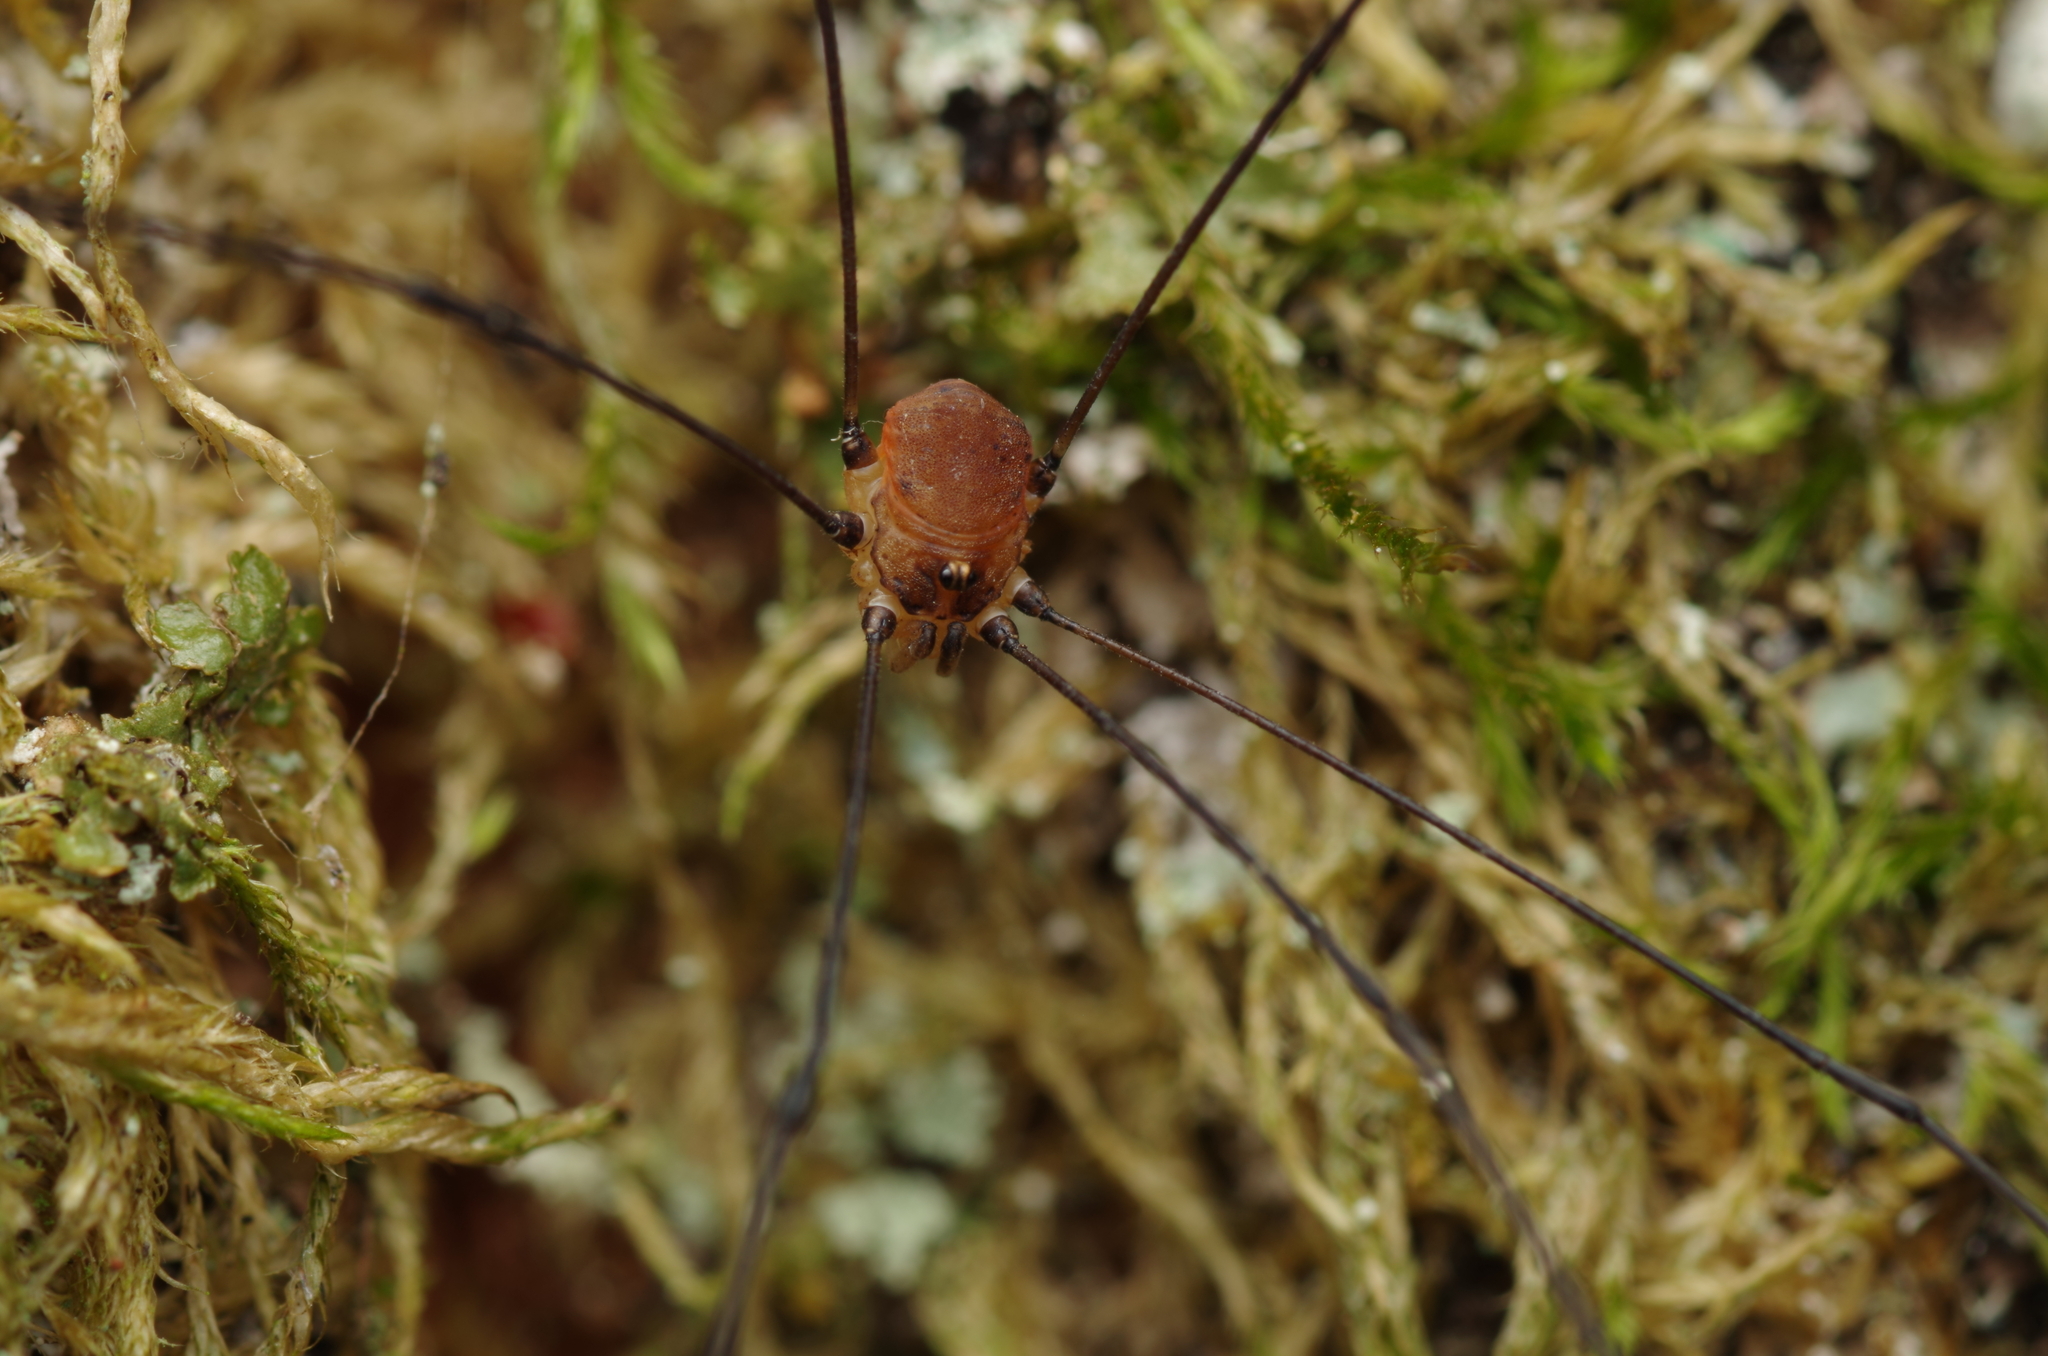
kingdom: Animalia
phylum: Arthropoda
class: Arachnida
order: Opiliones
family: Sclerosomatidae
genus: Leiobunum
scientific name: Leiobunum blackwalli
